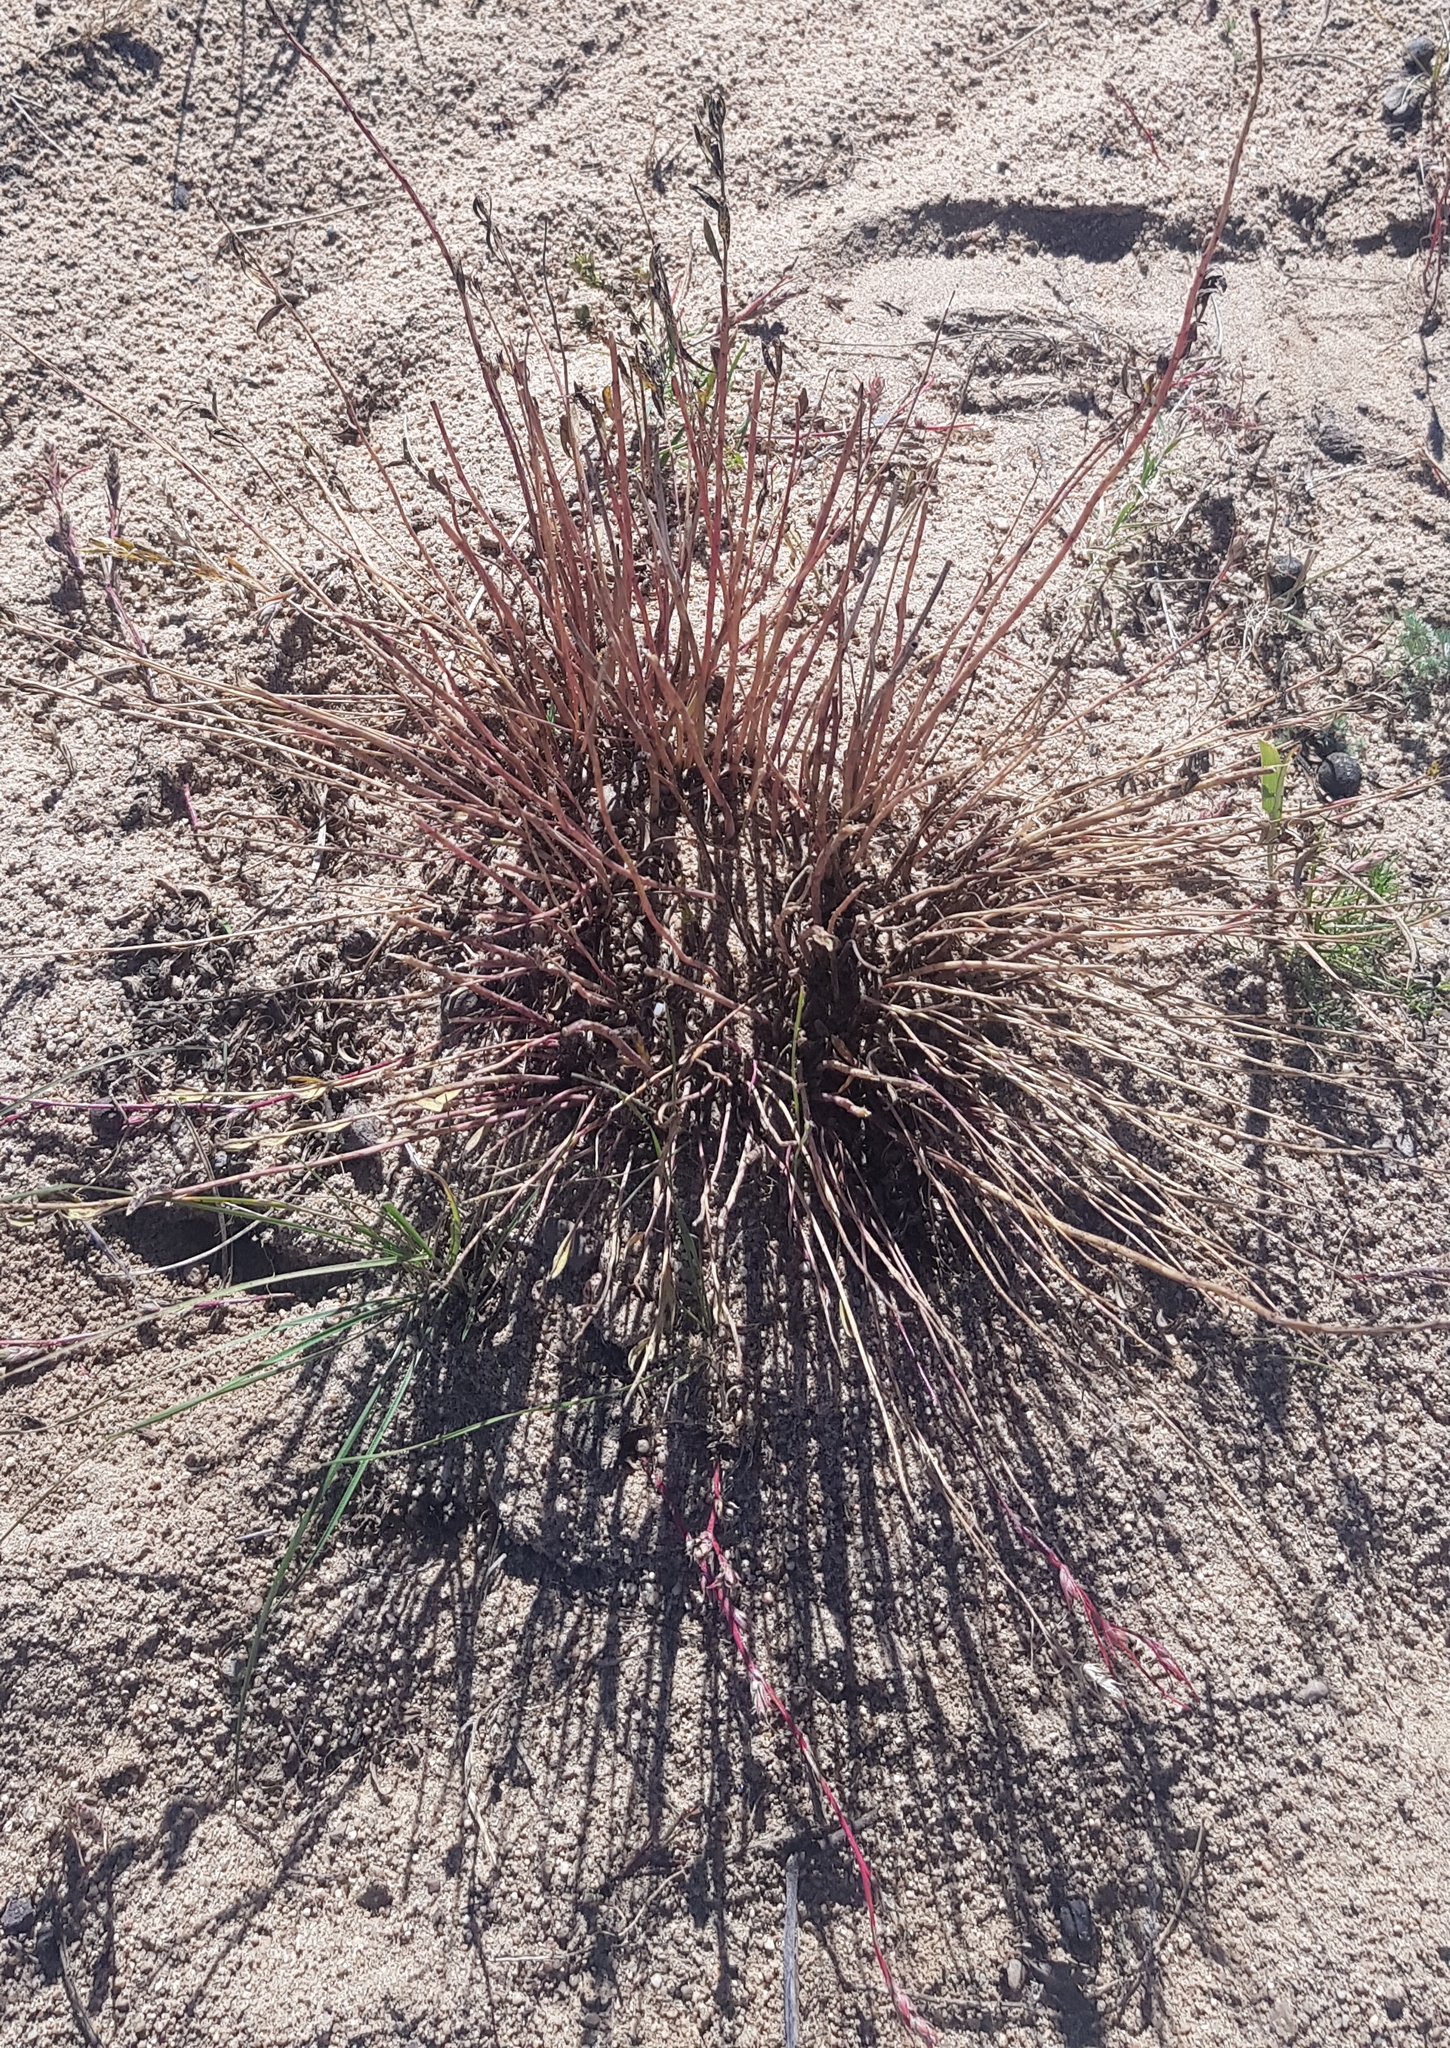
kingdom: Plantae
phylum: Tracheophyta
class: Liliopsida
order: Poales
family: Poaceae
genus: Eragrostis
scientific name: Eragrostis minor
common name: Small love-grass
